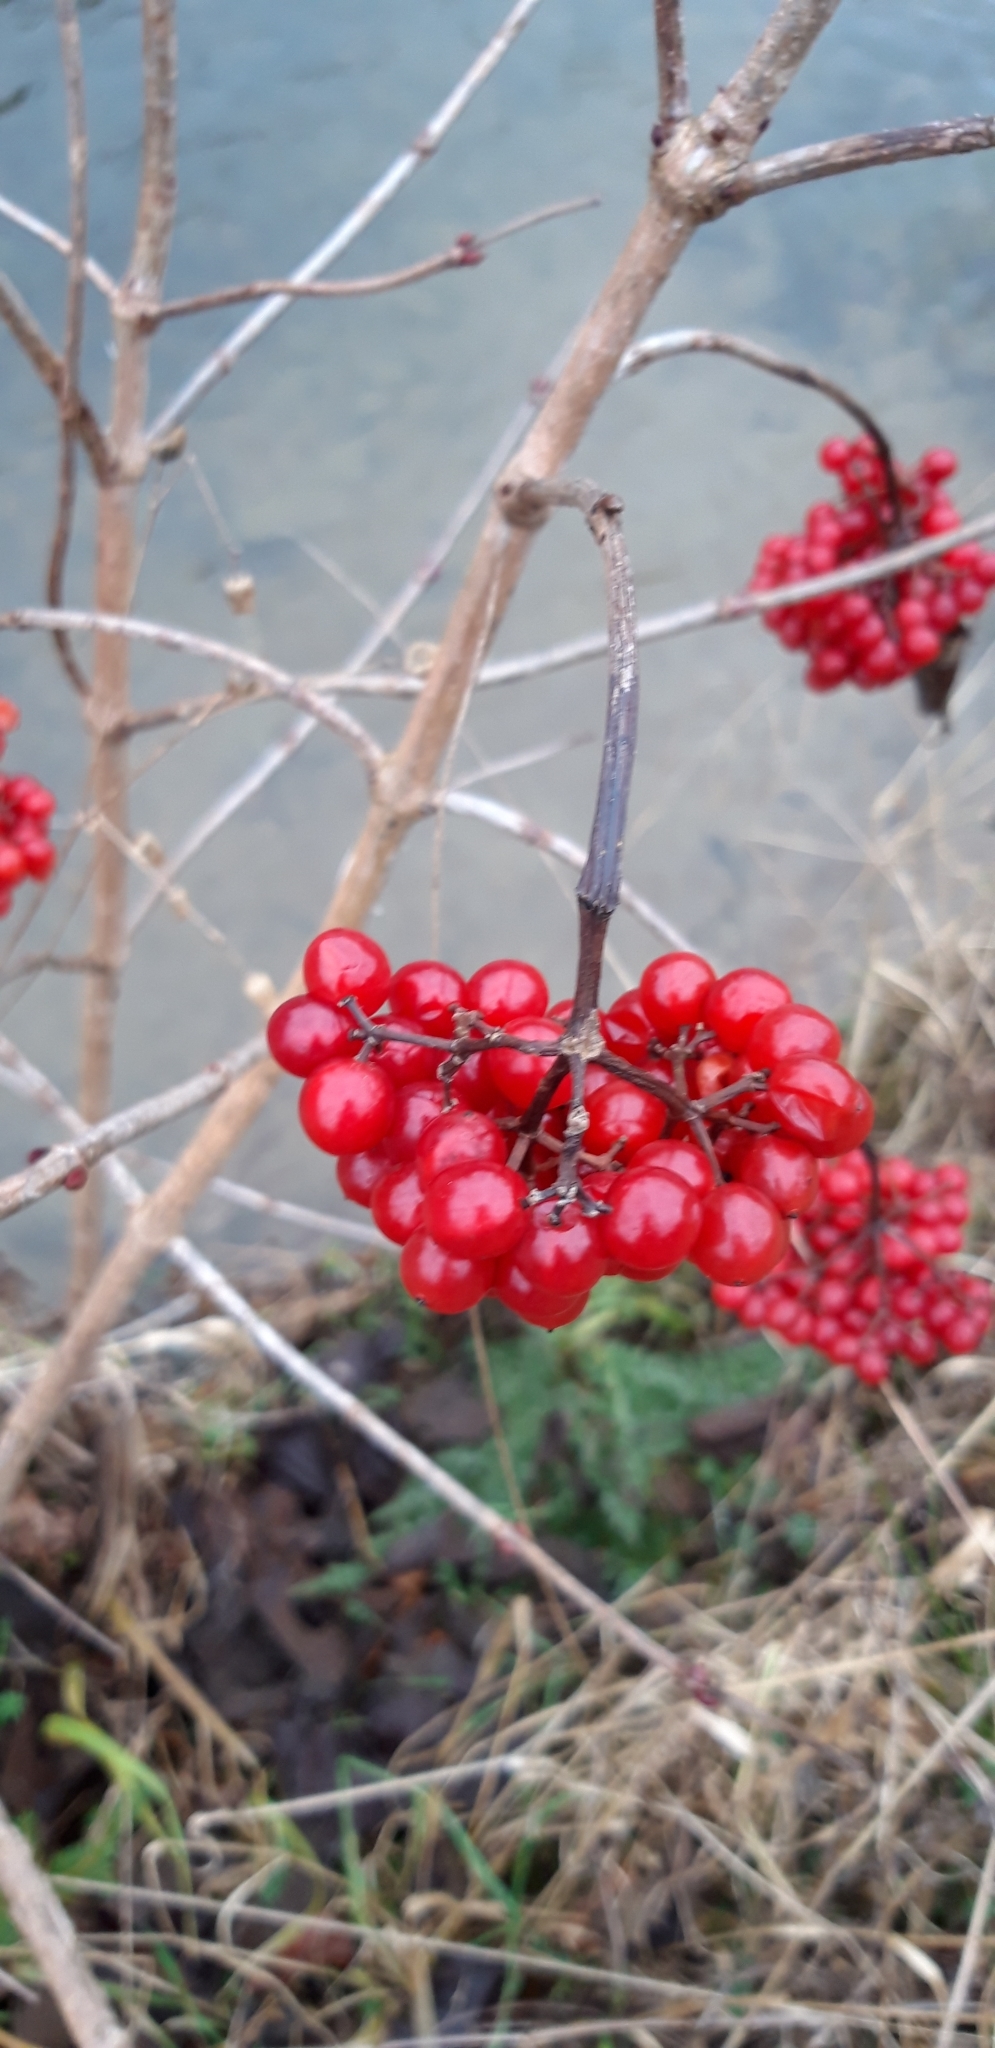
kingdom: Plantae
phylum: Tracheophyta
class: Magnoliopsida
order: Dipsacales
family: Viburnaceae
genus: Viburnum
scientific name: Viburnum opulus
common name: Guelder-rose
